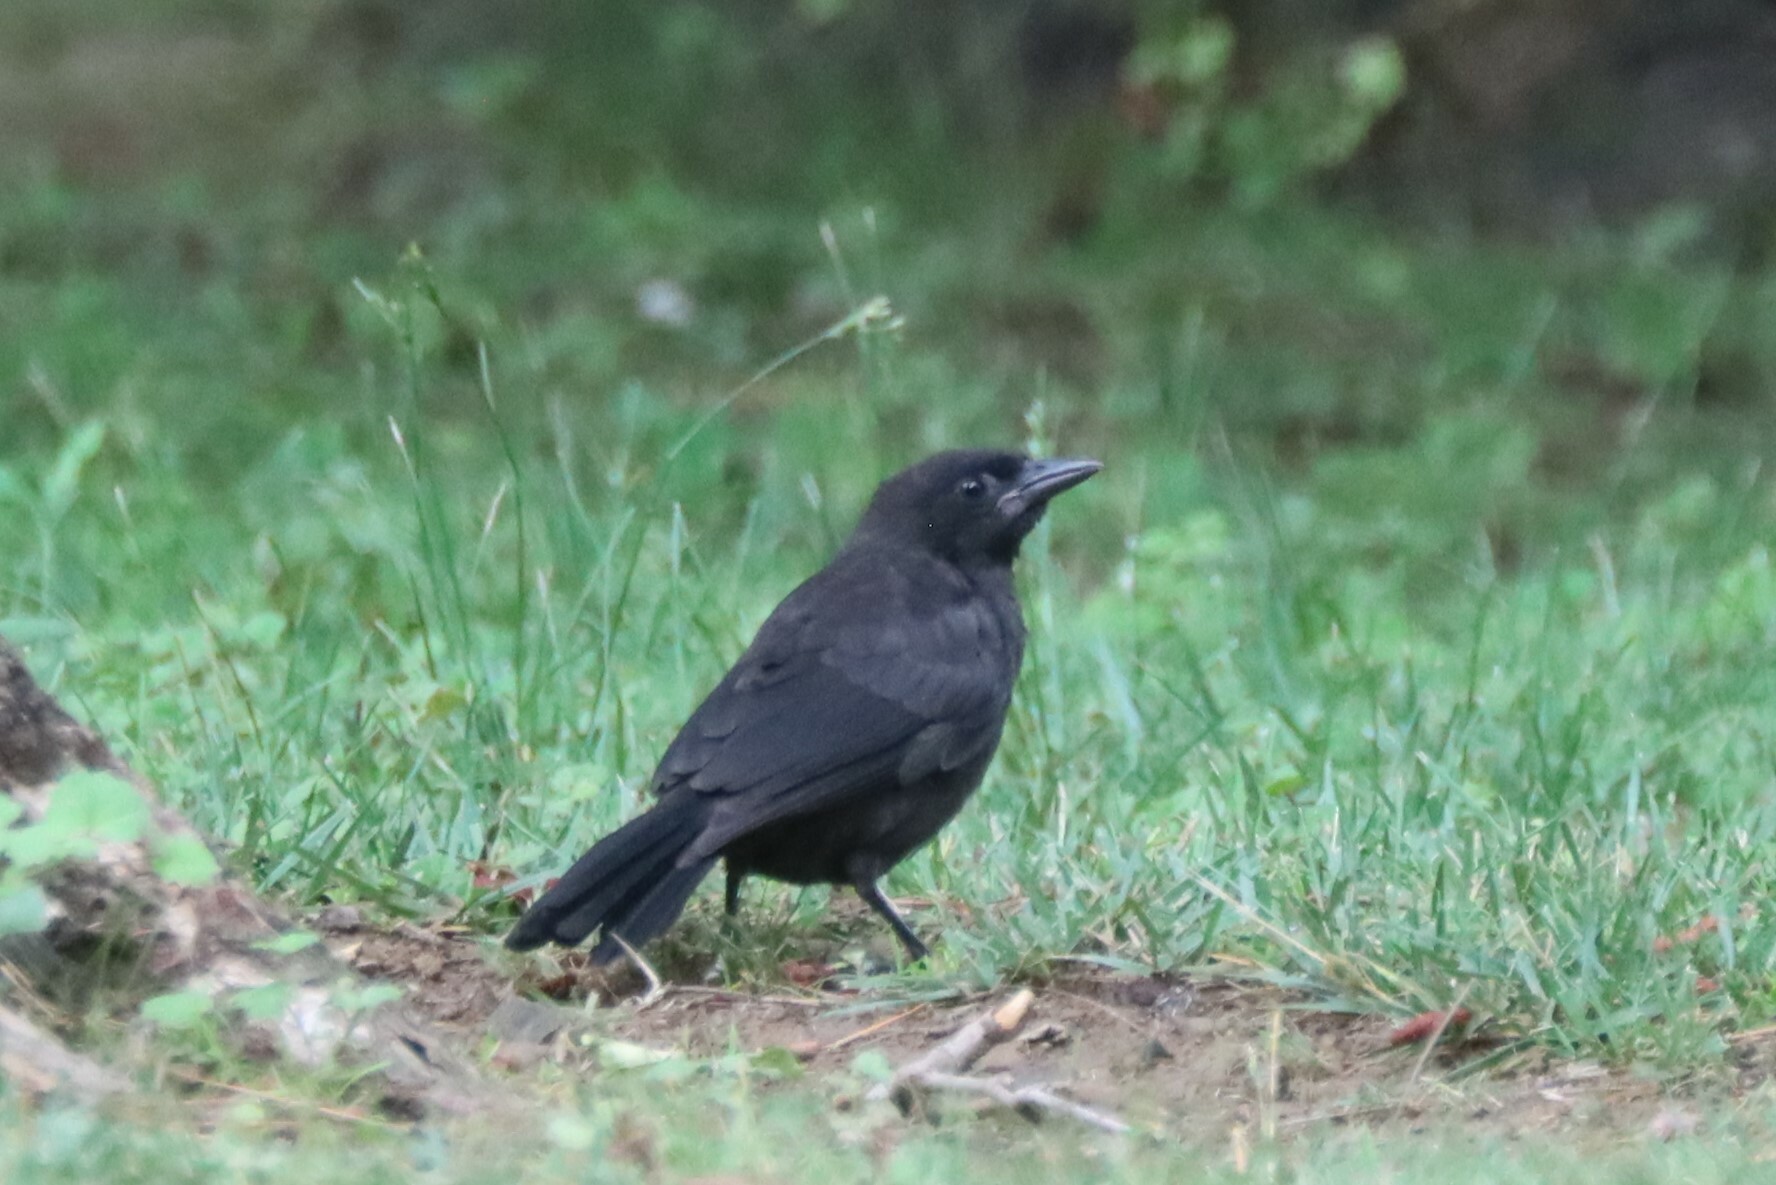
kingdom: Animalia
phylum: Chordata
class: Aves
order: Passeriformes
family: Corvidae
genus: Corvus
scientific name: Corvus brachyrhynchos
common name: American crow
